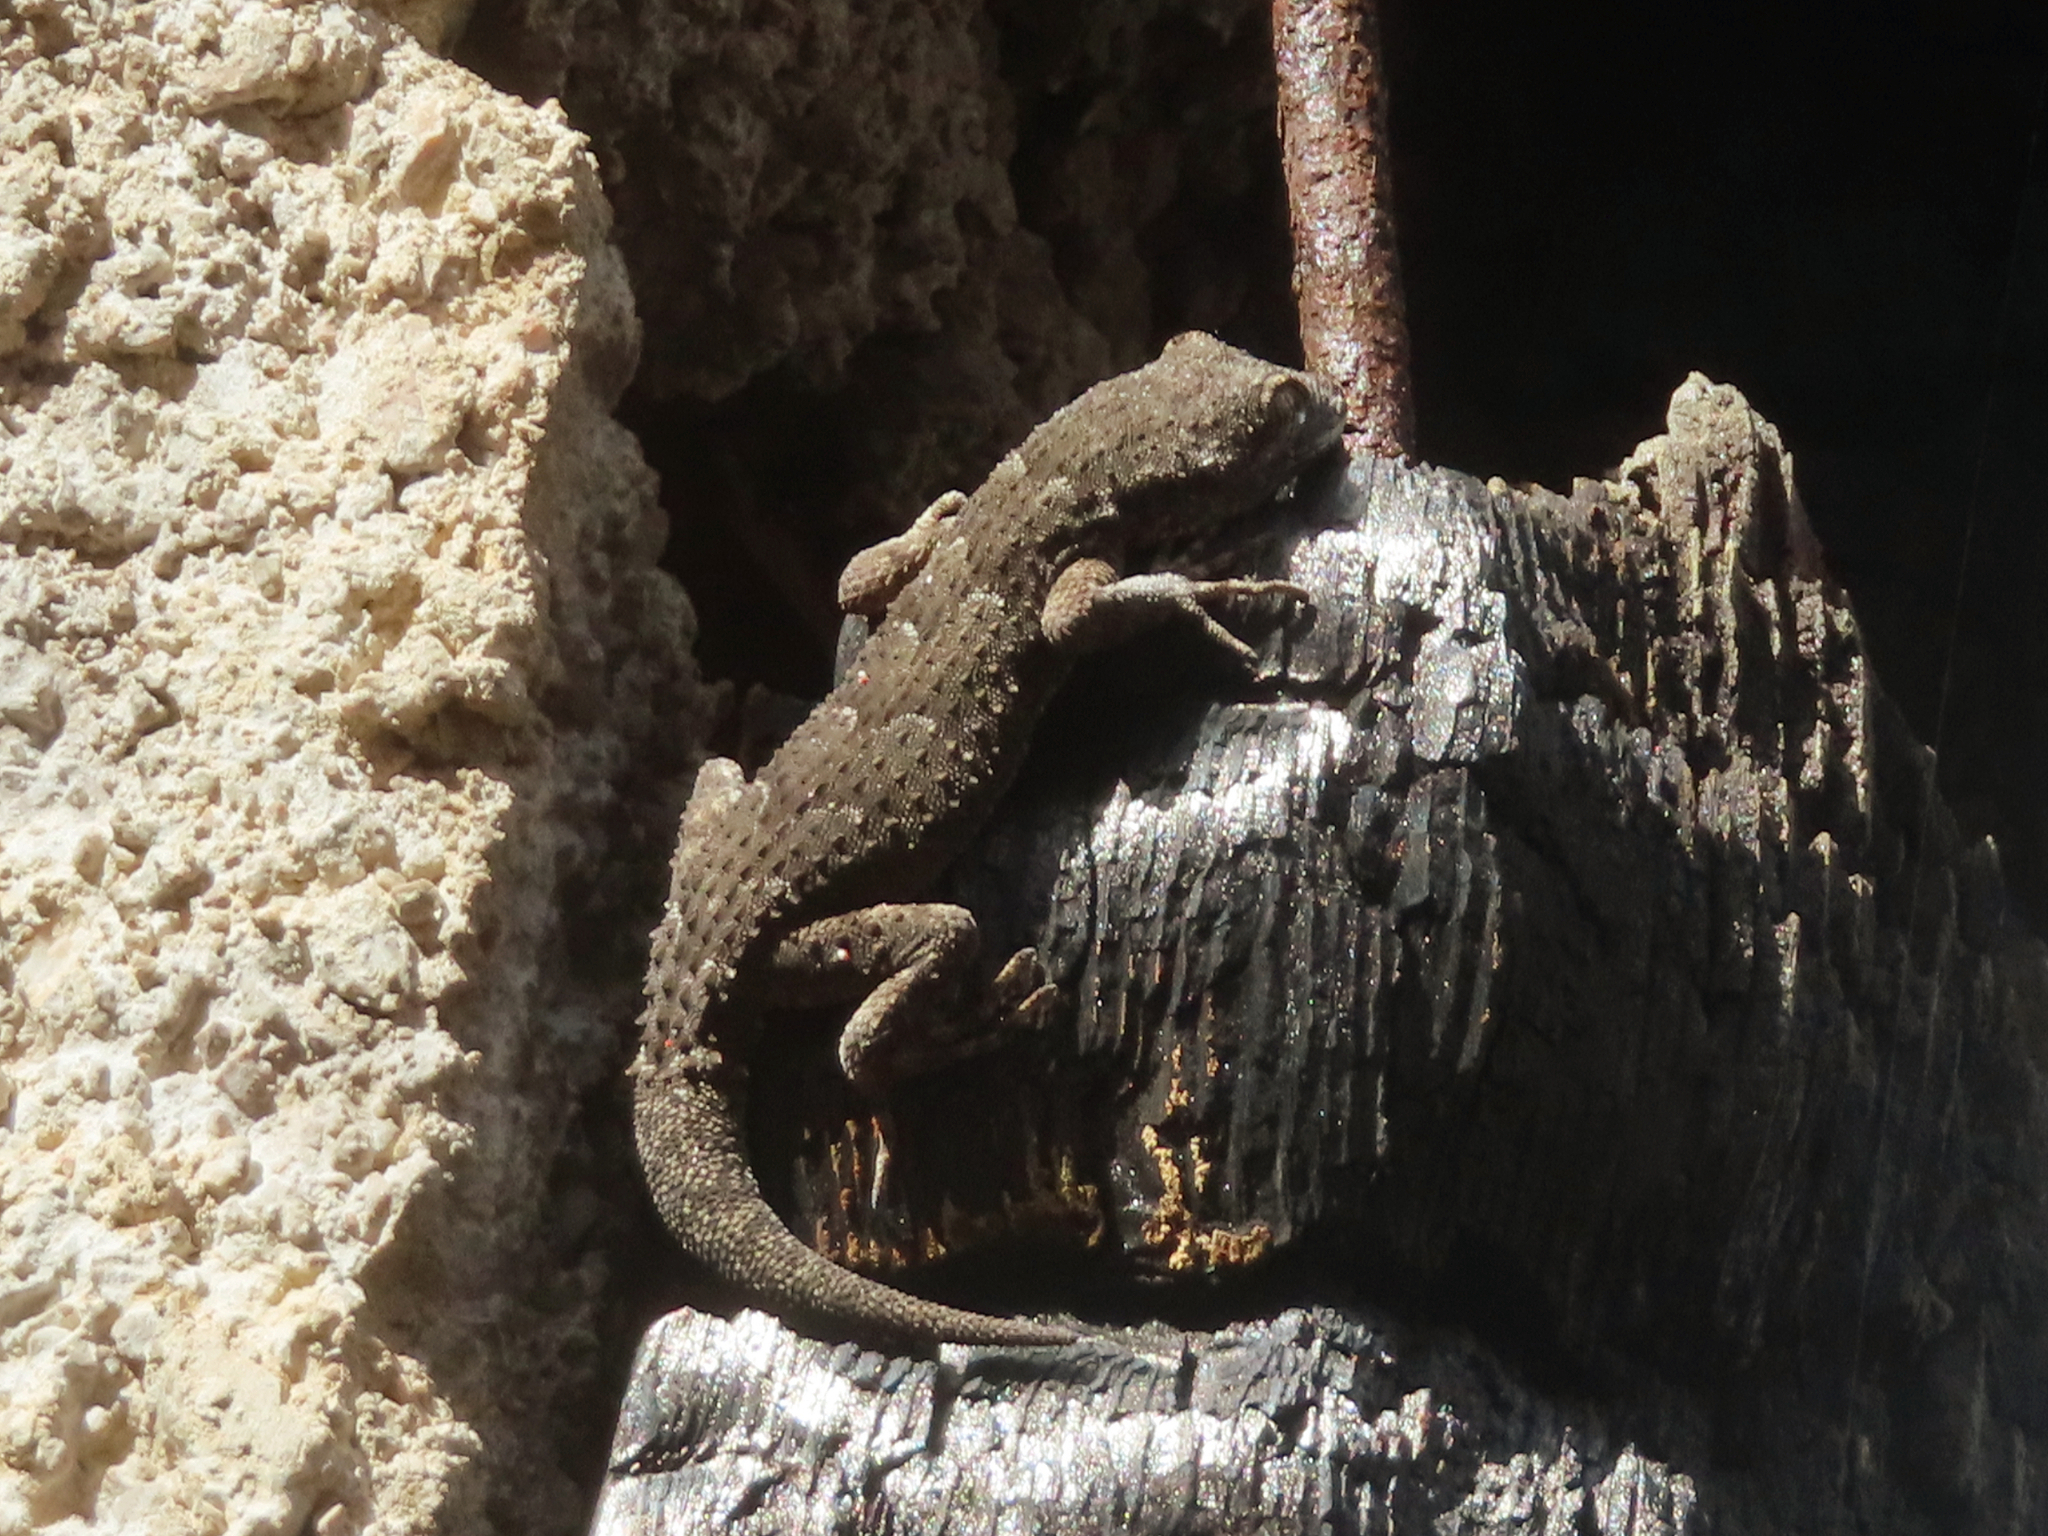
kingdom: Animalia
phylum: Chordata
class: Squamata
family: Gekkonidae
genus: Mediodactylus
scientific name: Mediodactylus kotschyi
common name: Kotschy's gecko
